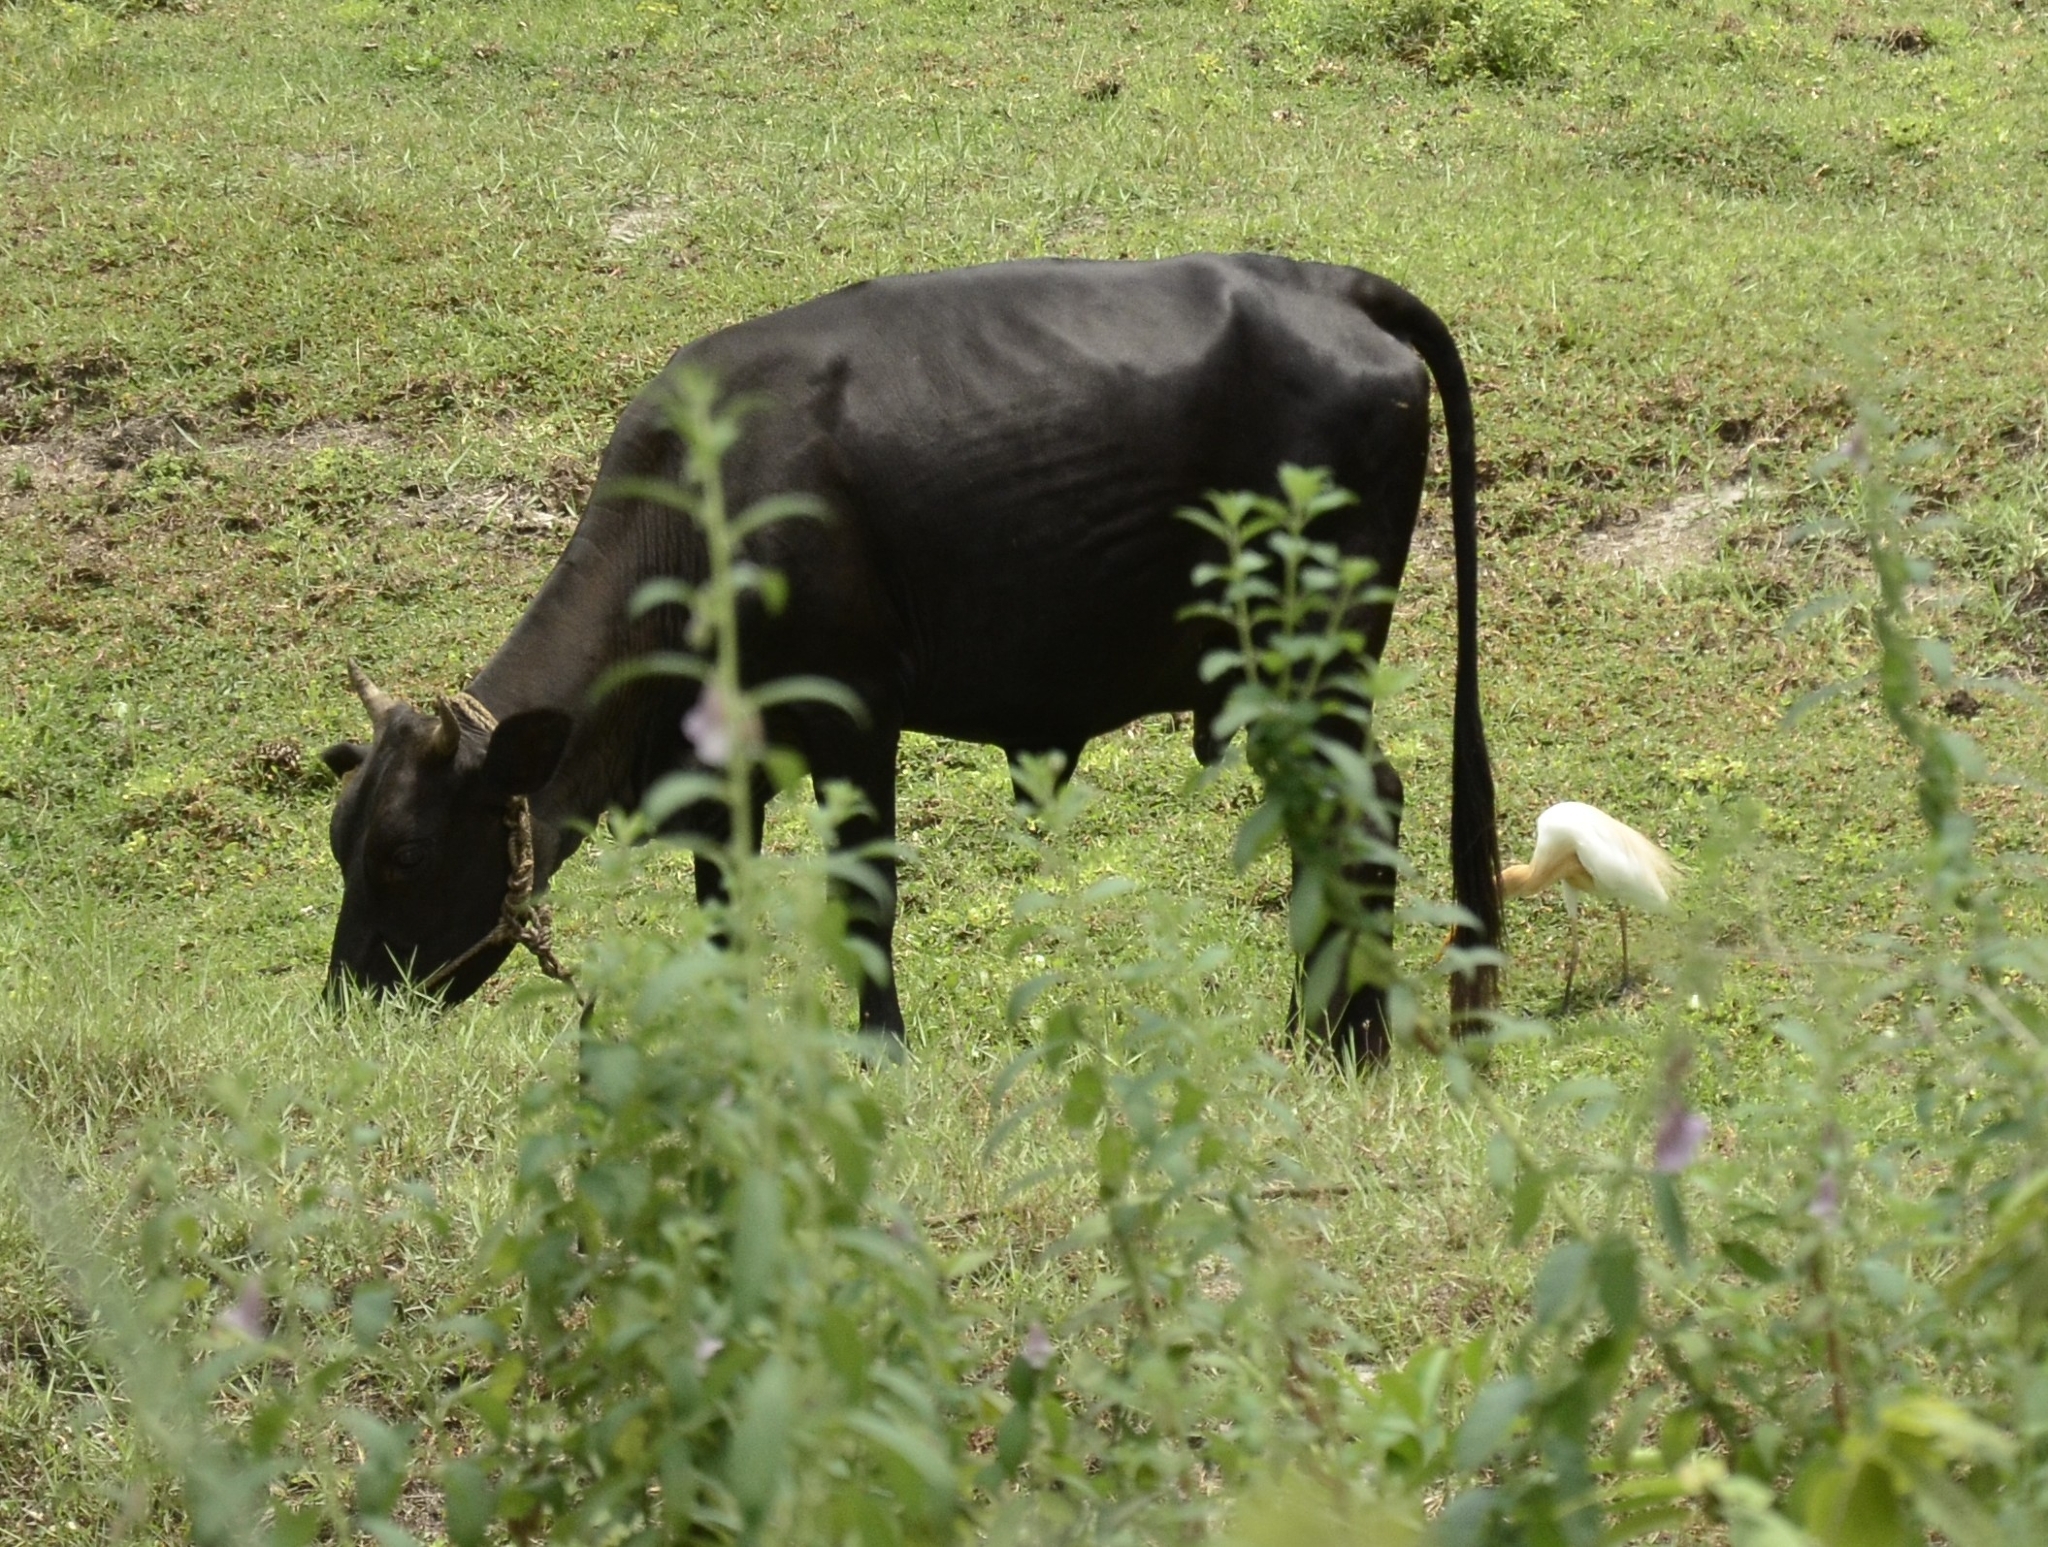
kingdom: Animalia
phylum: Chordata
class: Aves
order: Pelecaniformes
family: Ardeidae
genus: Bubulcus
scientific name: Bubulcus coromandus
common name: Eastern cattle egret
